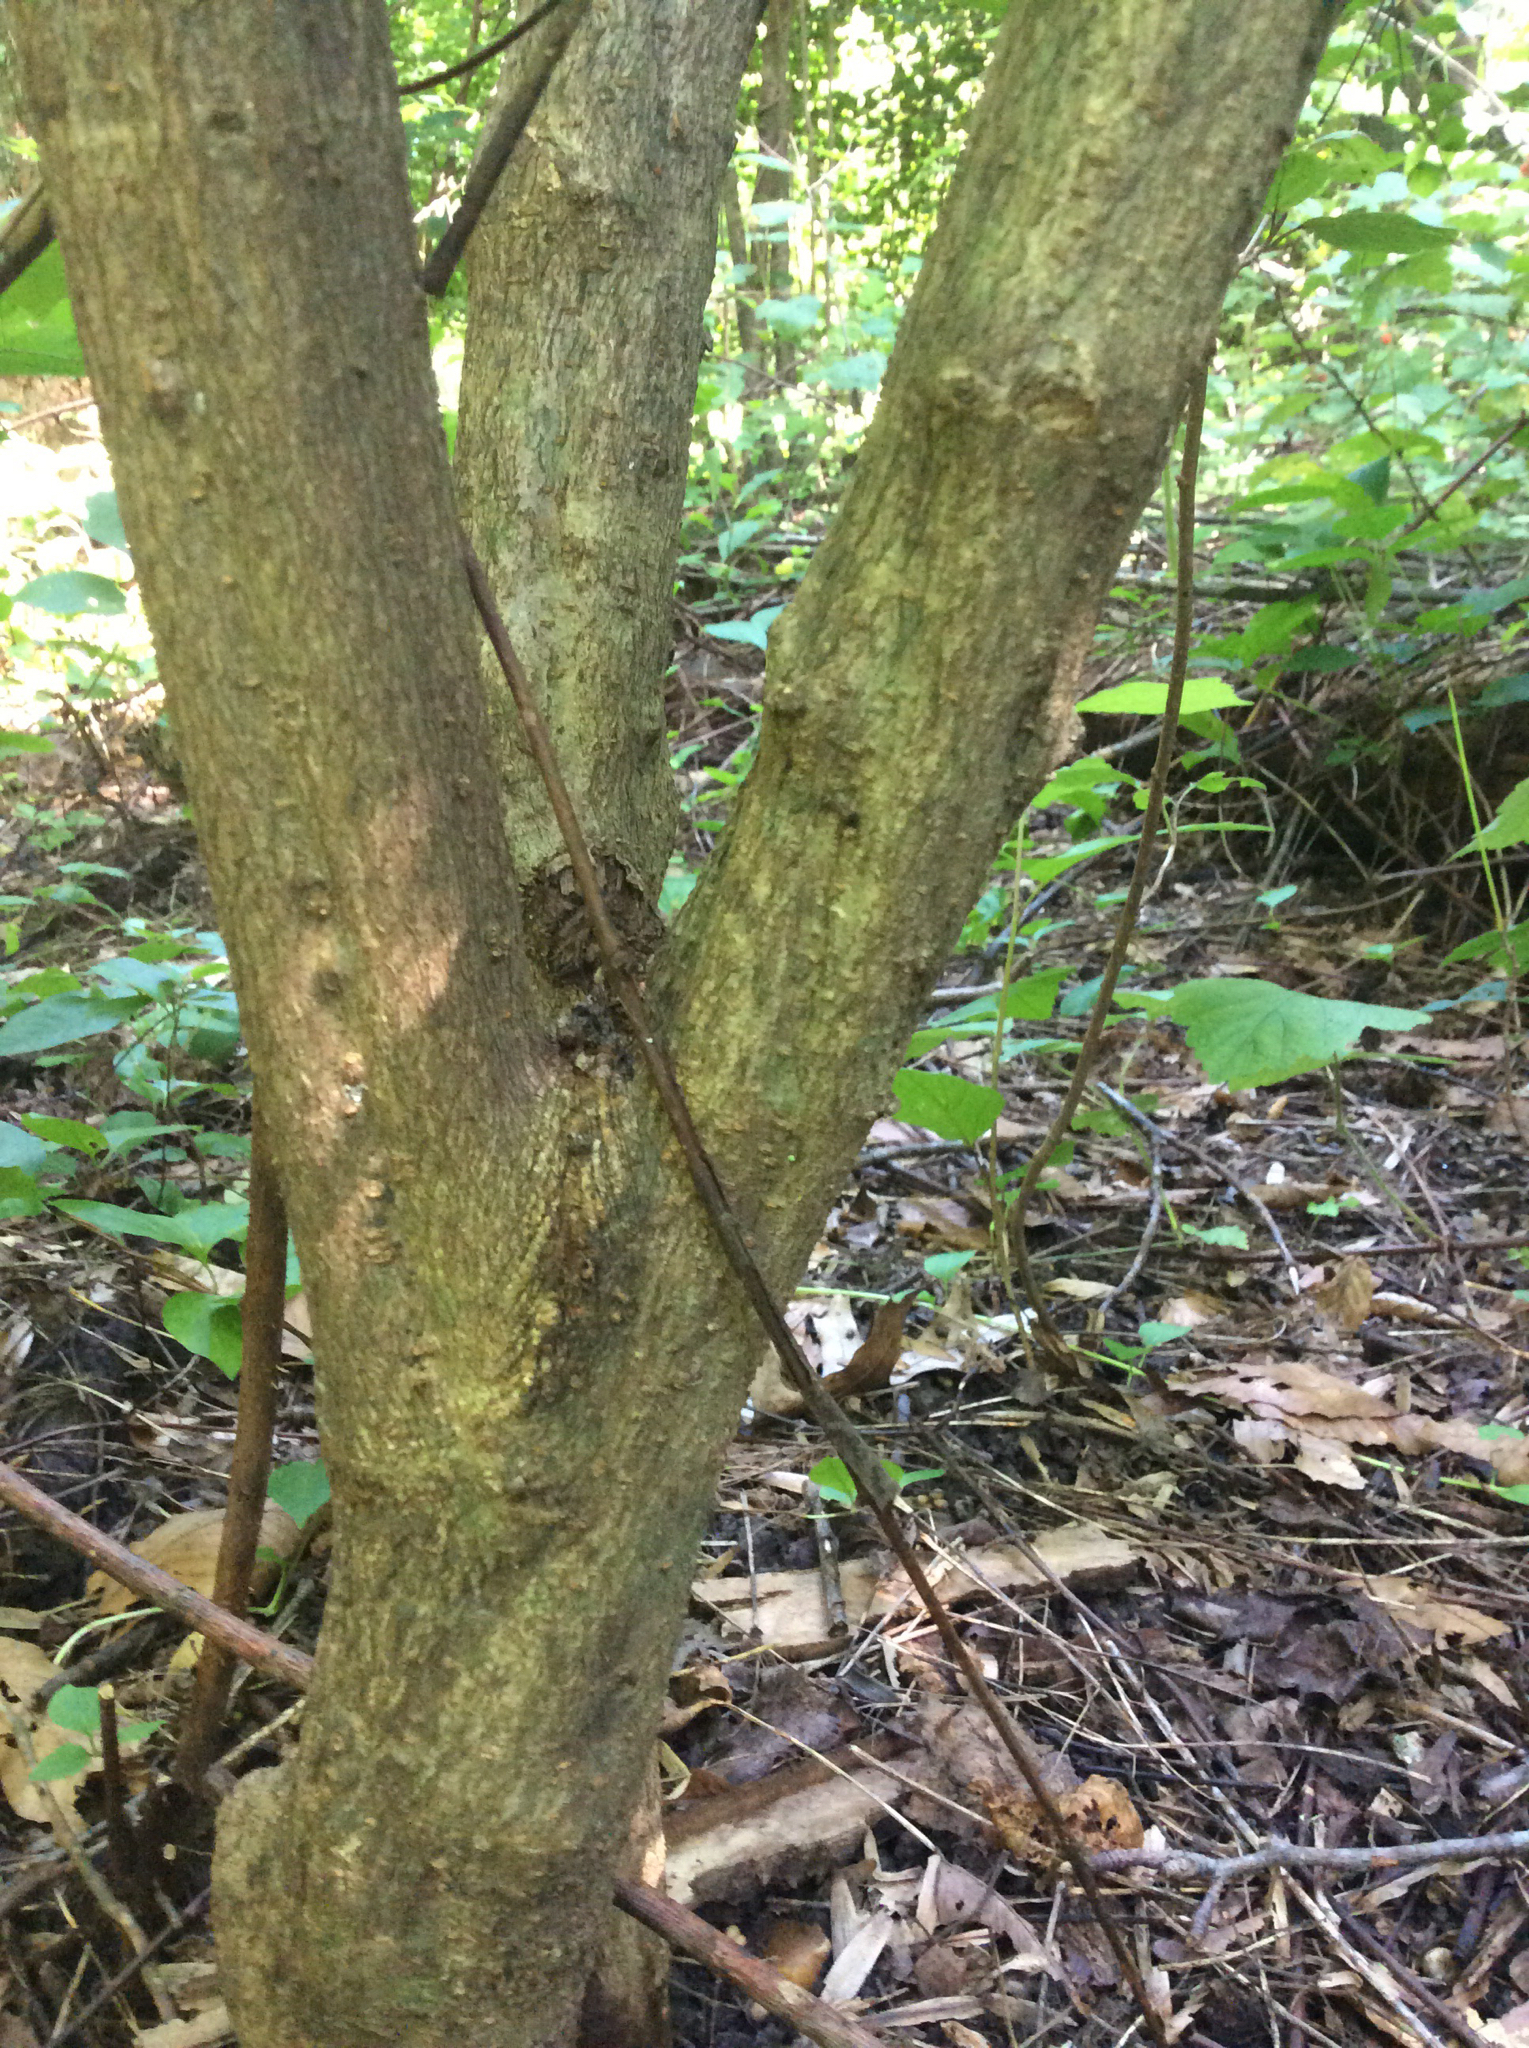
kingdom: Plantae
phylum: Tracheophyta
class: Magnoliopsida
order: Dipsacales
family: Viburnaceae
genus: Viburnum
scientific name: Viburnum dilatatum
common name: Linden arrowwood
